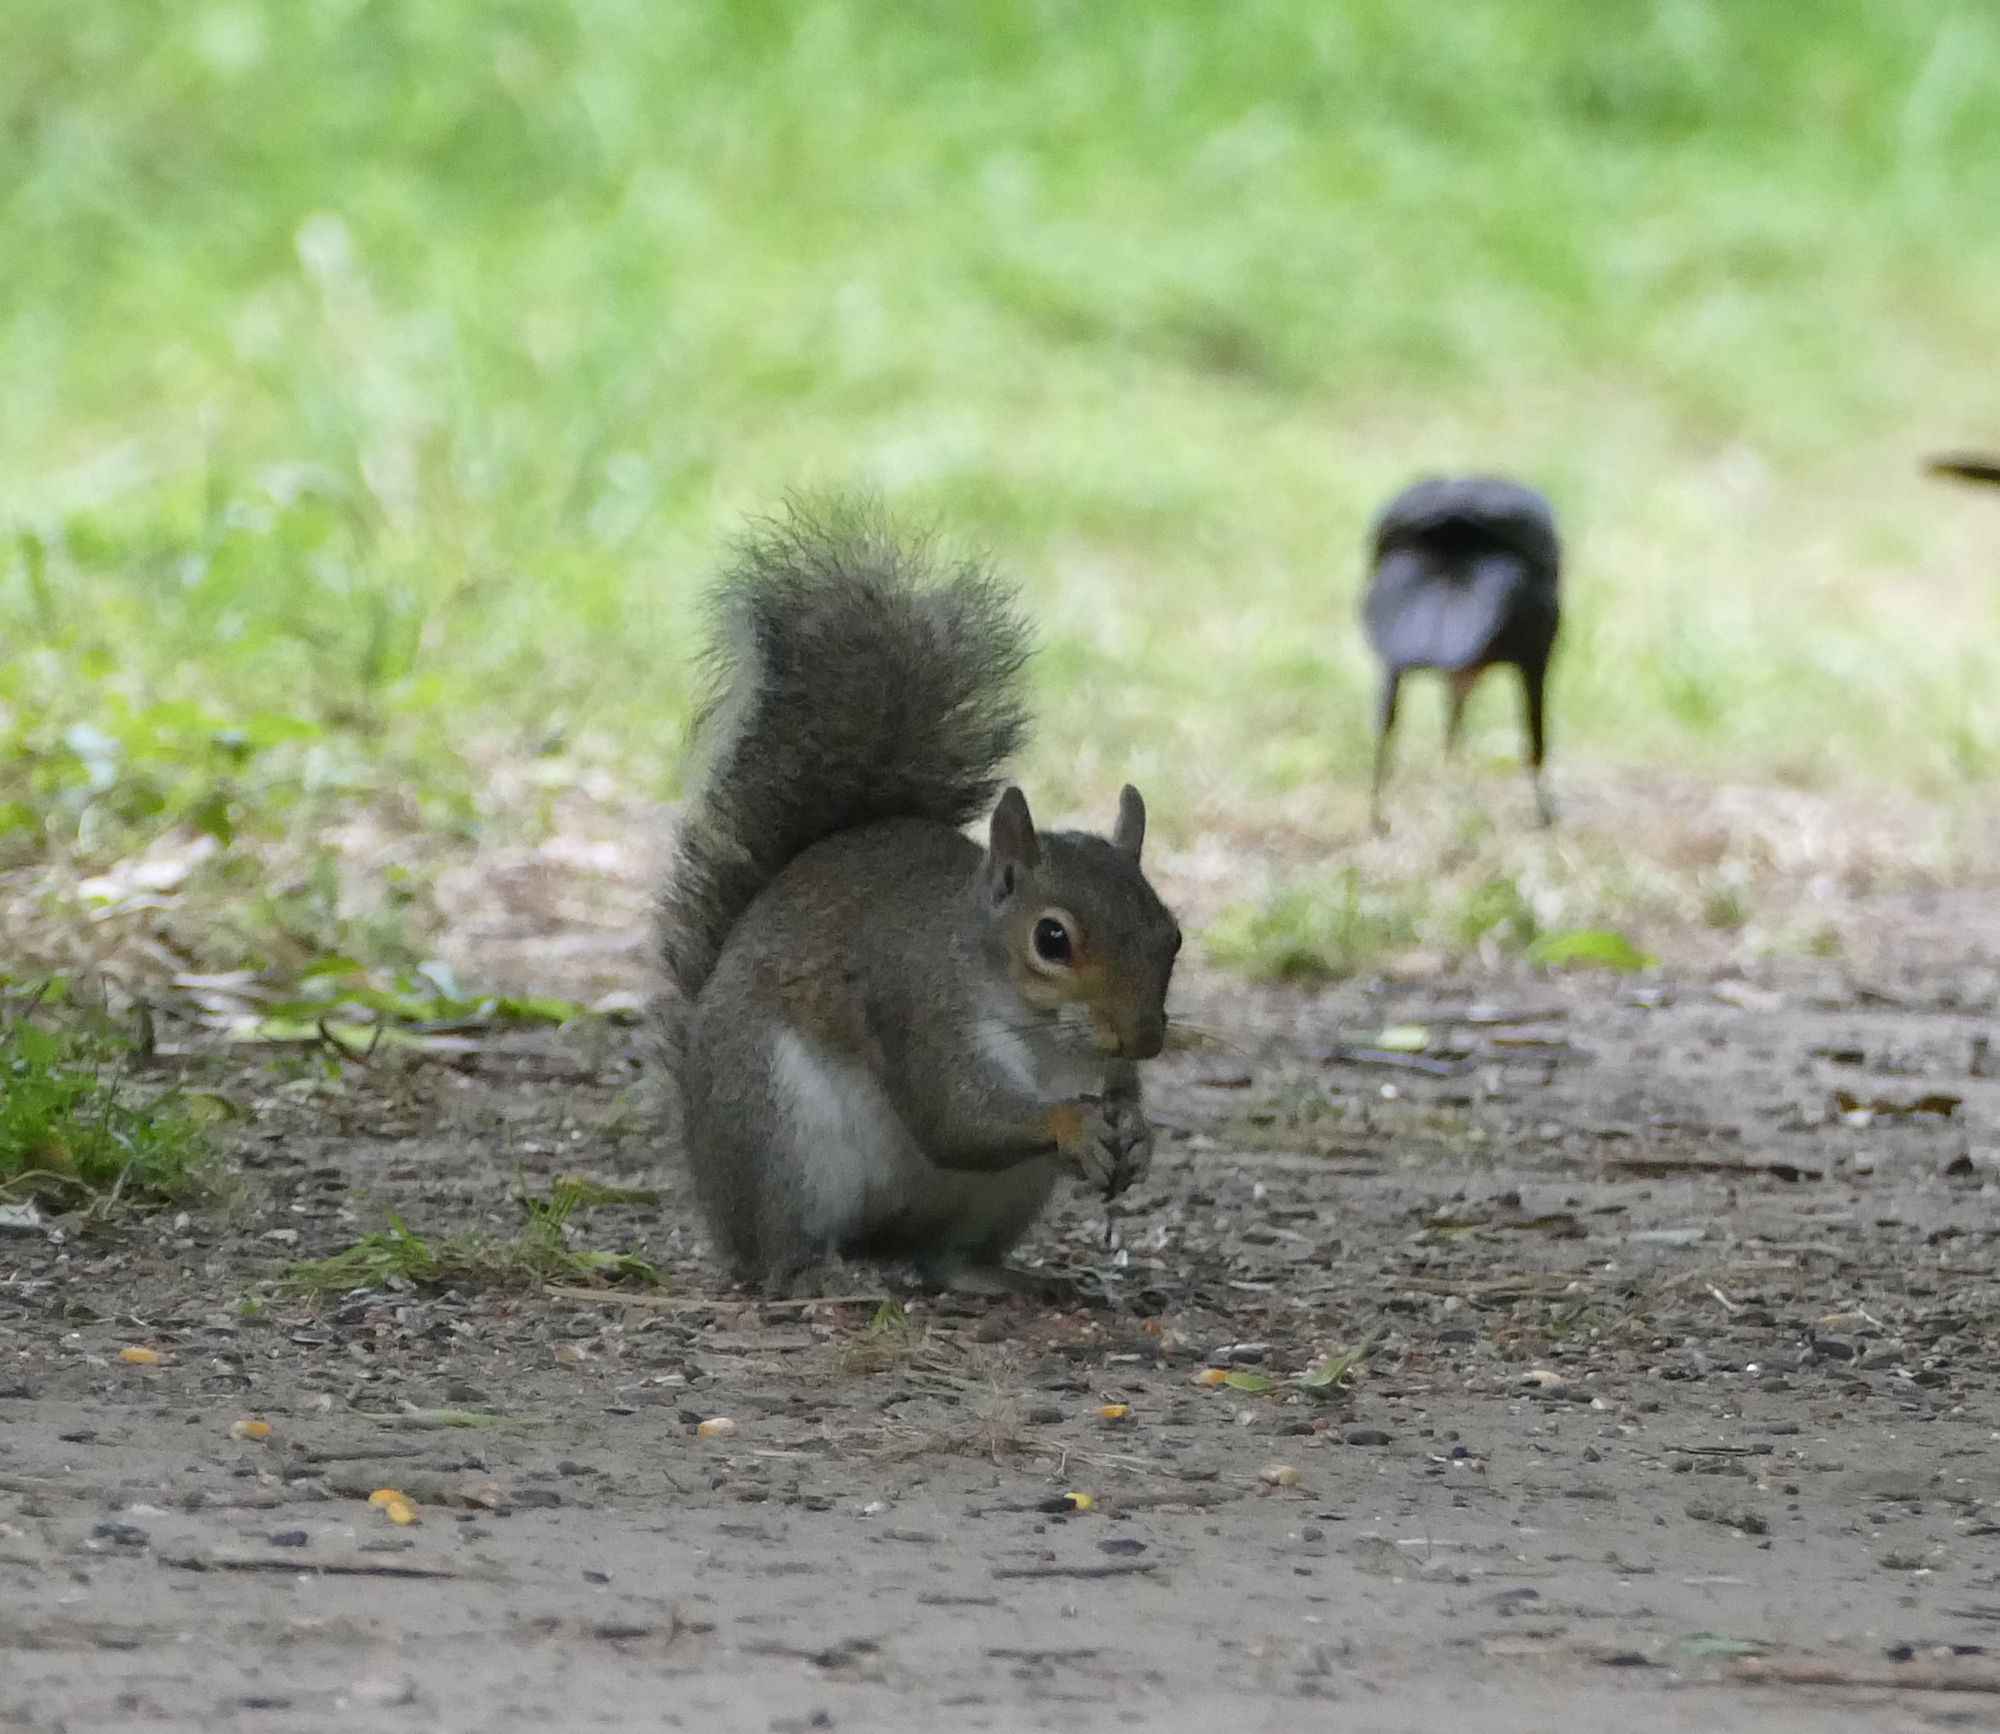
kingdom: Animalia
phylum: Chordata
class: Mammalia
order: Rodentia
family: Sciuridae
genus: Sciurus
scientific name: Sciurus carolinensis
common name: Eastern gray squirrel
